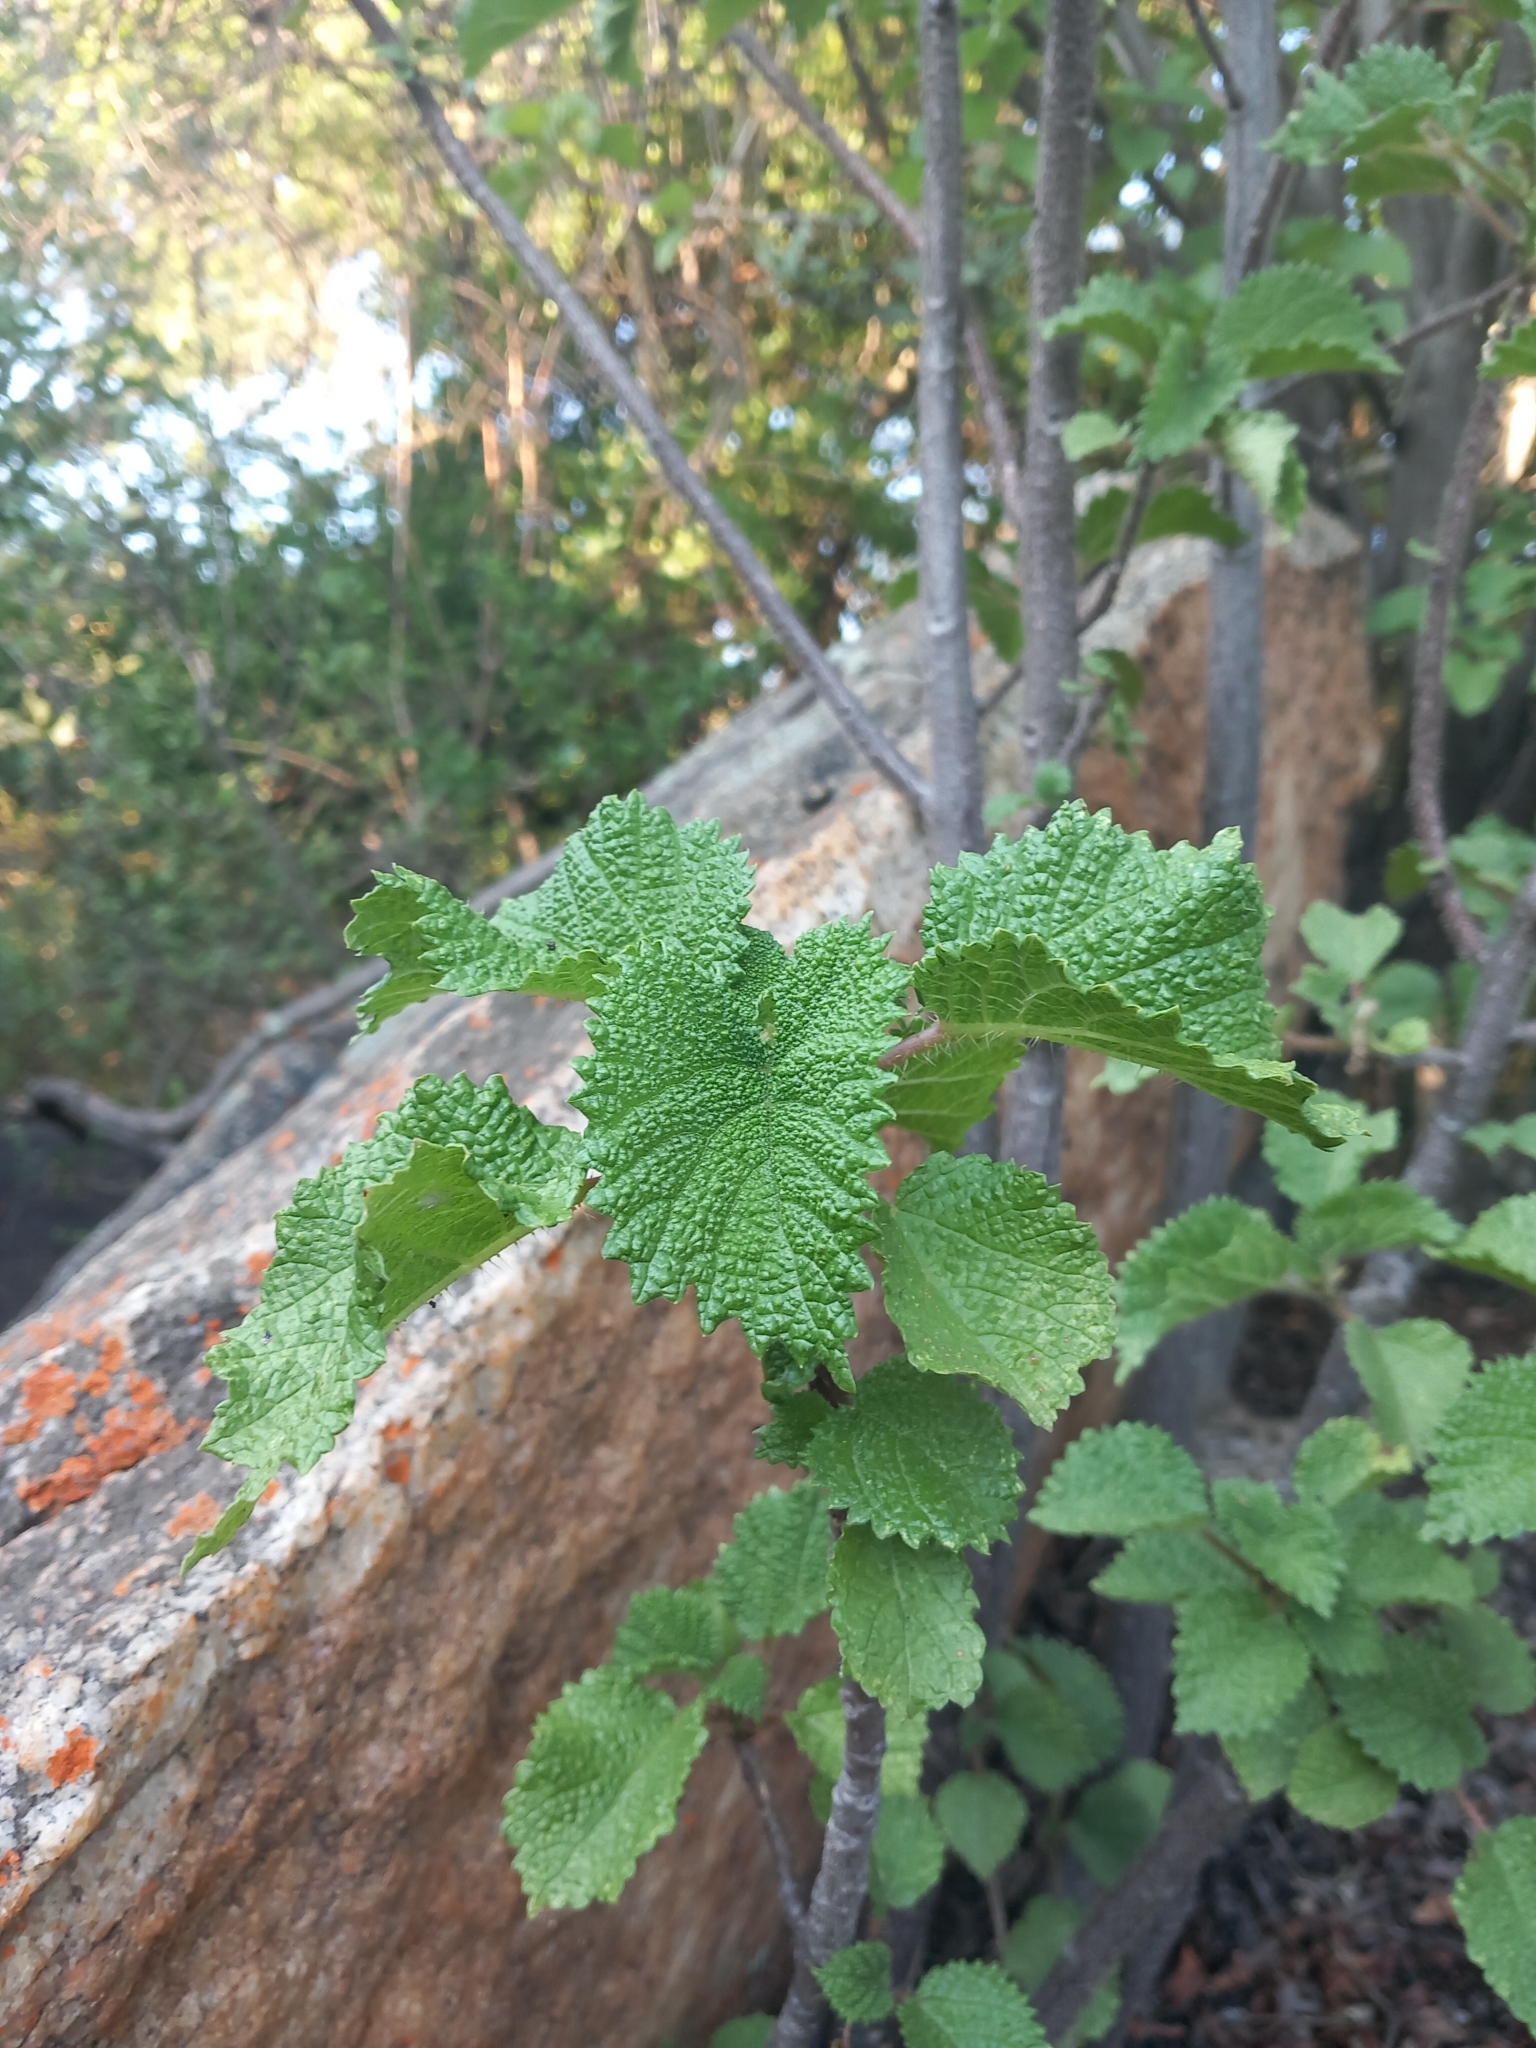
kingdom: Plantae
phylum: Tracheophyta
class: Magnoliopsida
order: Rosales
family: Urticaceae
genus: Obetia
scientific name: Obetia tenax
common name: Rock tree nettle
